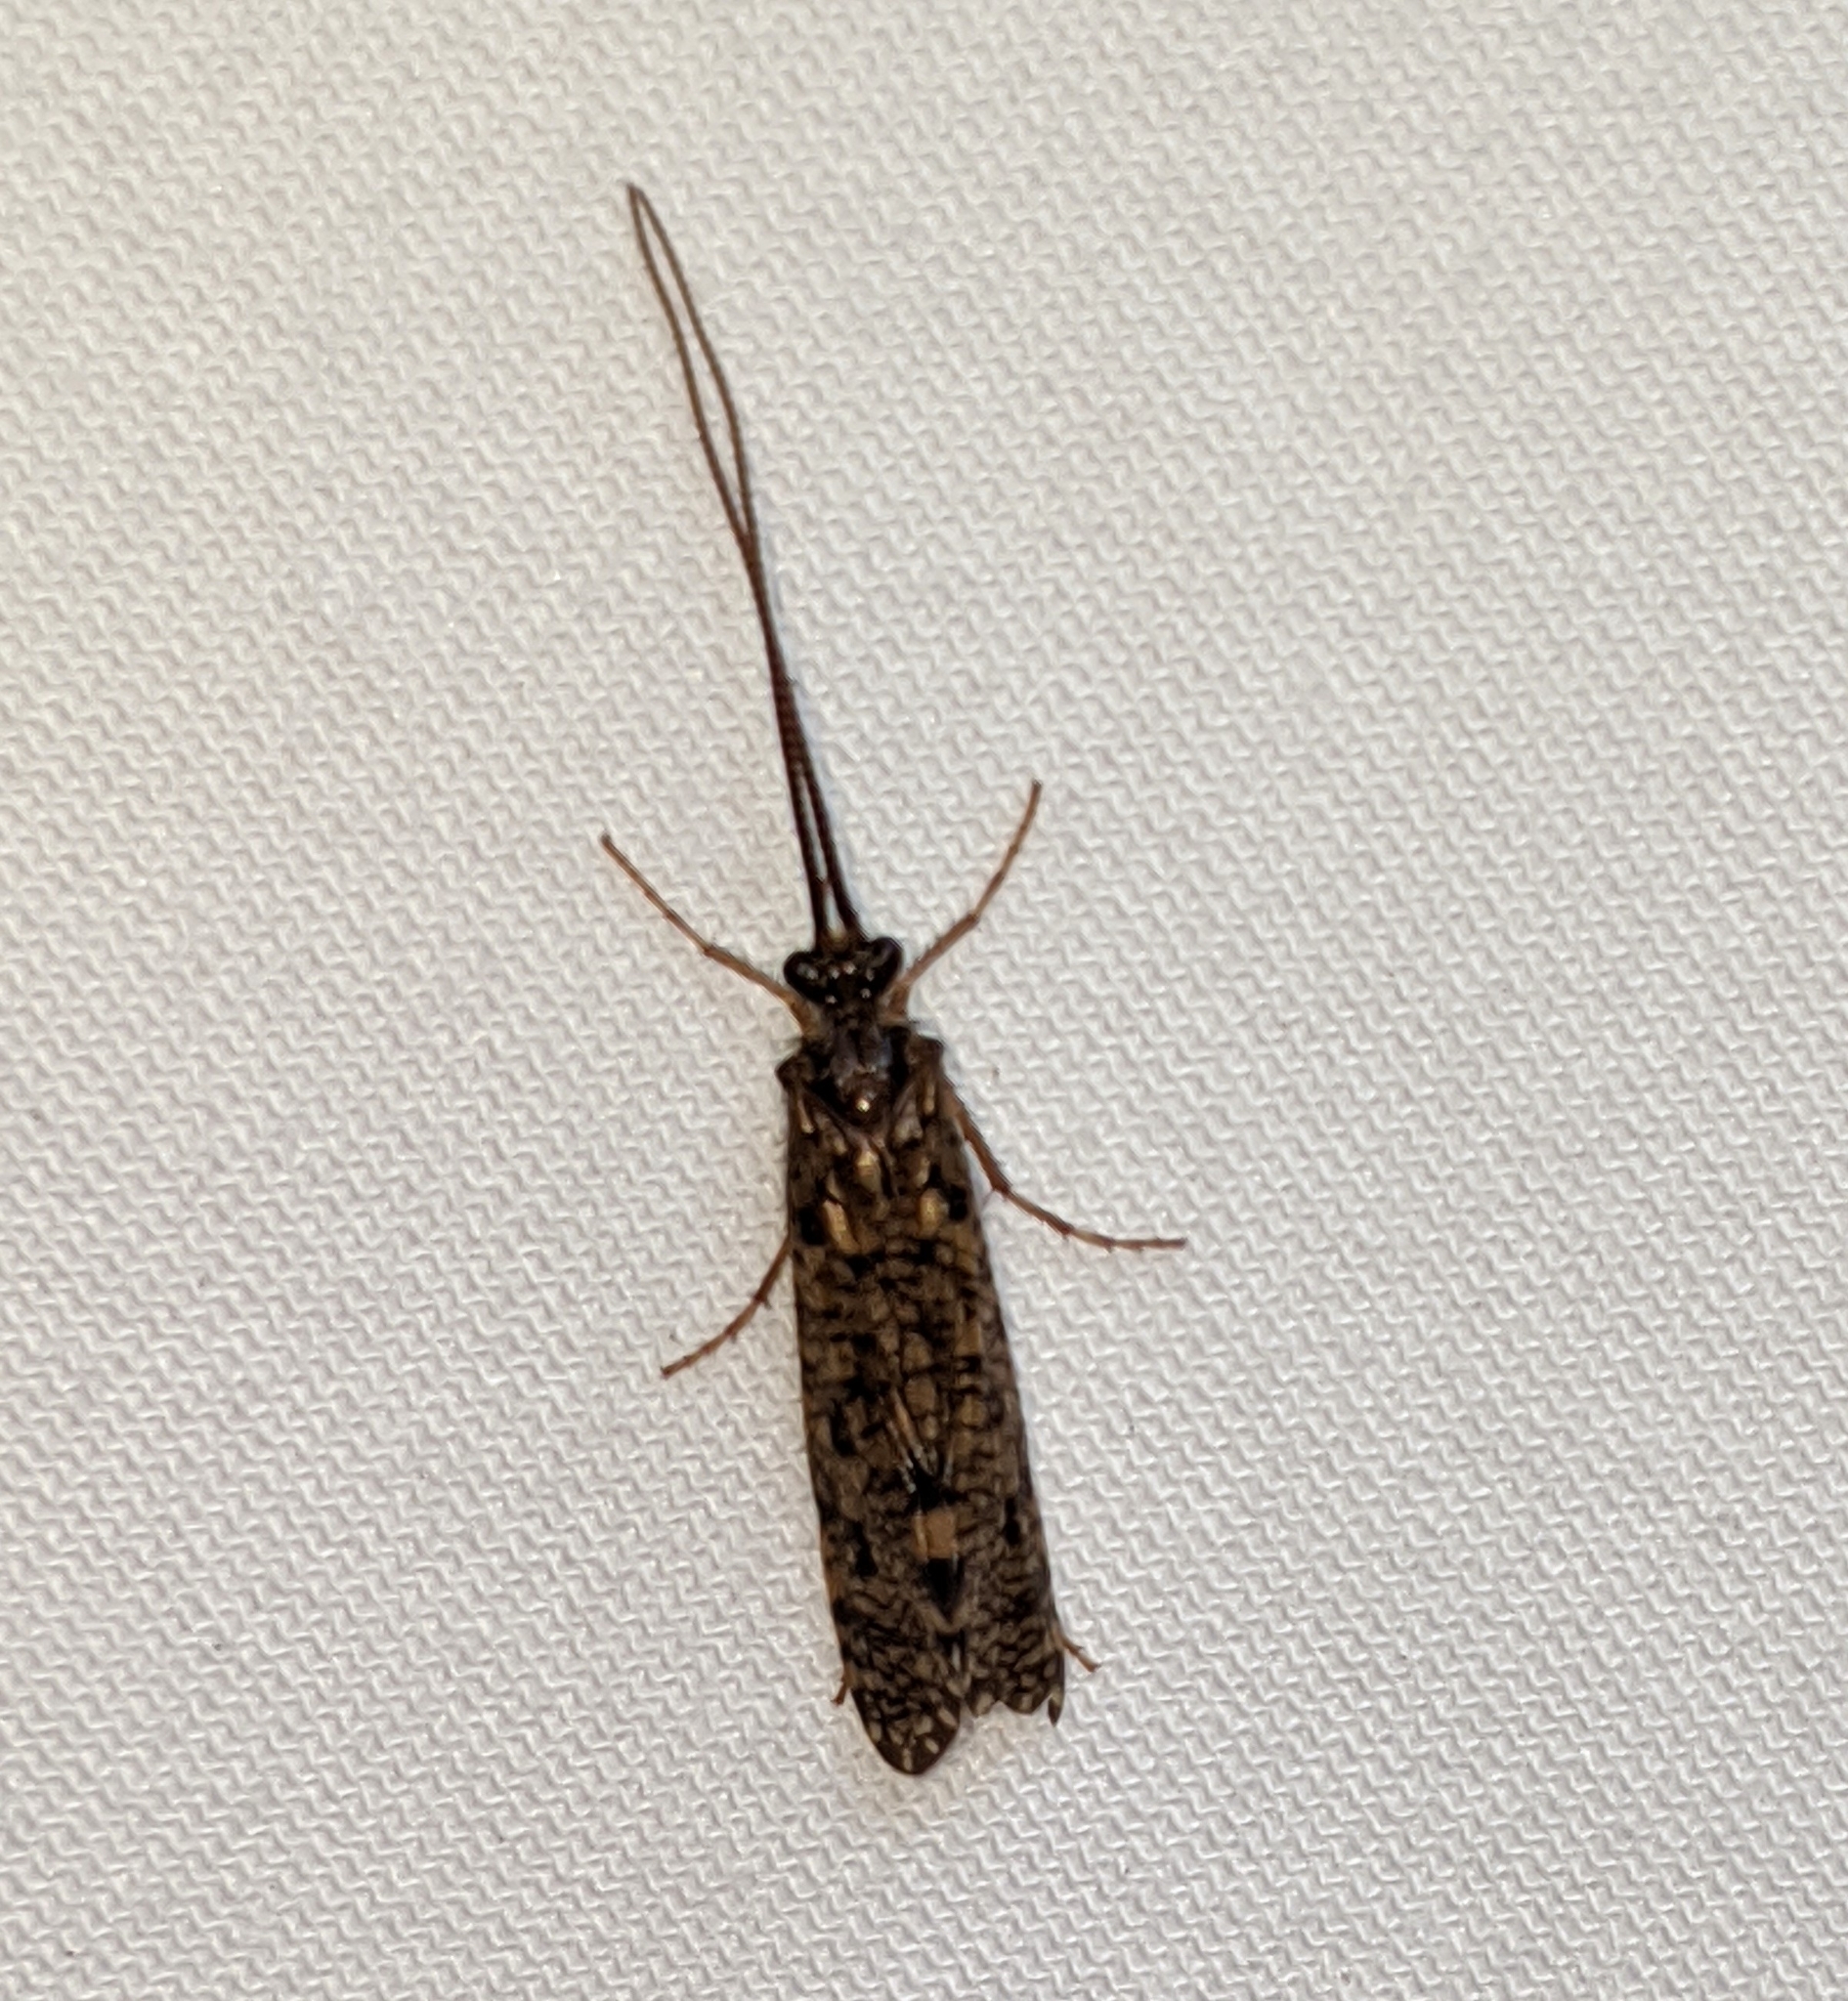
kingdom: Animalia
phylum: Arthropoda
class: Insecta
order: Trichoptera
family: Phryganeidae
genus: Banksiola
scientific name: Banksiola crotchi
